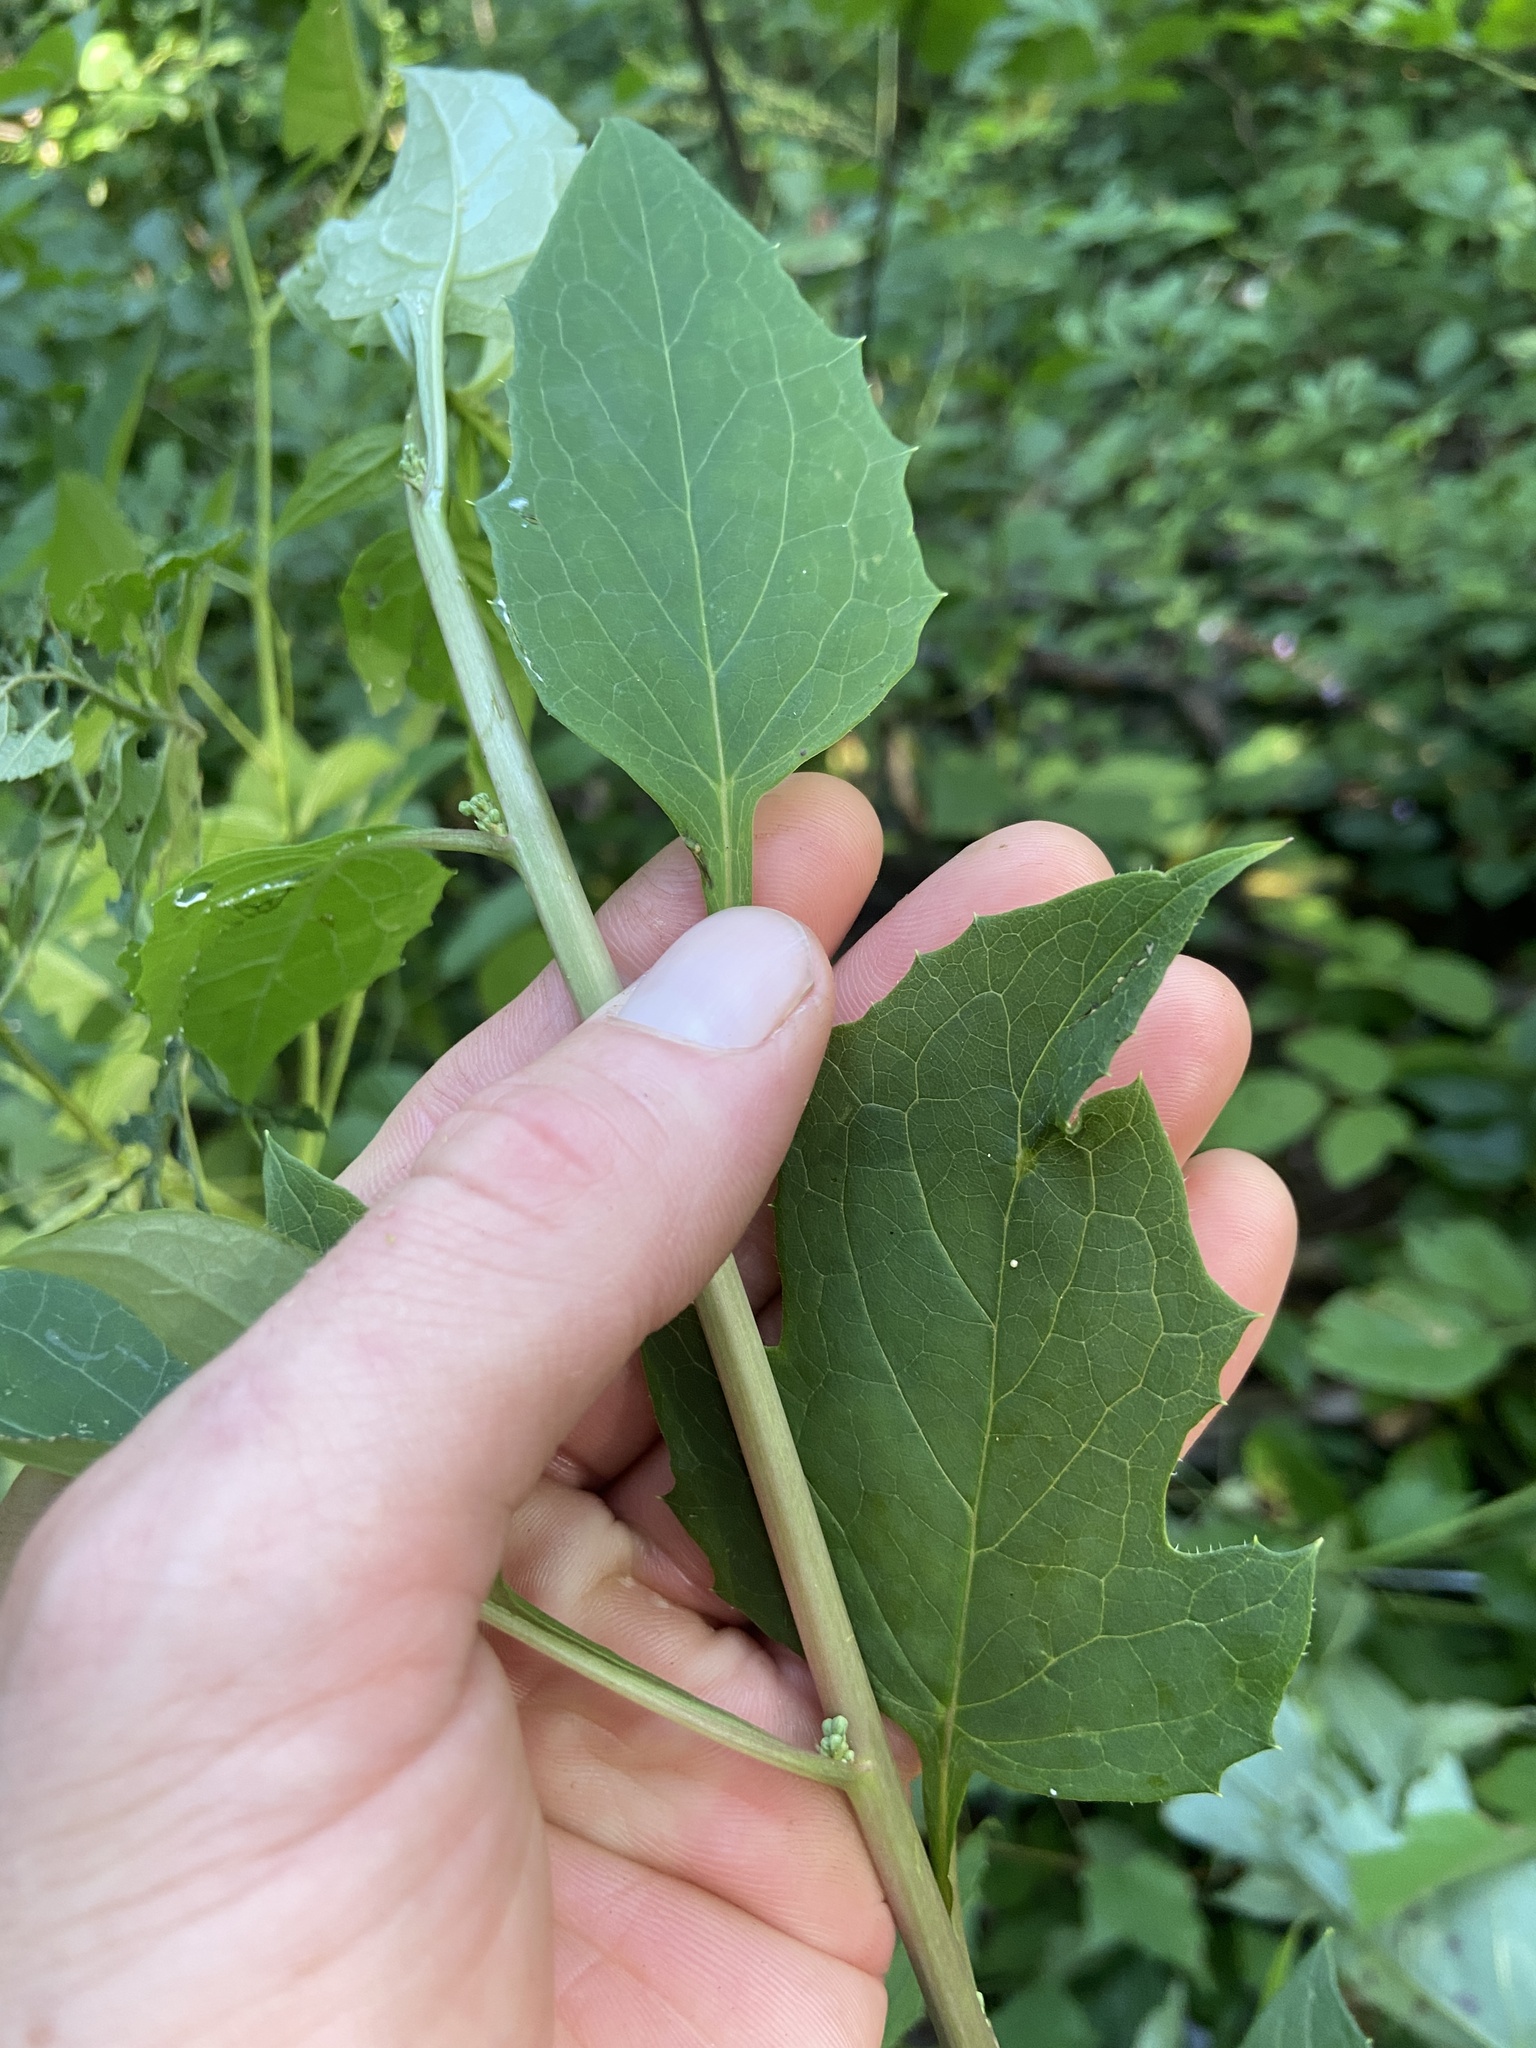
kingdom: Plantae
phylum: Tracheophyta
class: Magnoliopsida
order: Asterales
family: Asteraceae
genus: Nabalus
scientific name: Nabalus altissima
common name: Tall rattlesnakeroot
